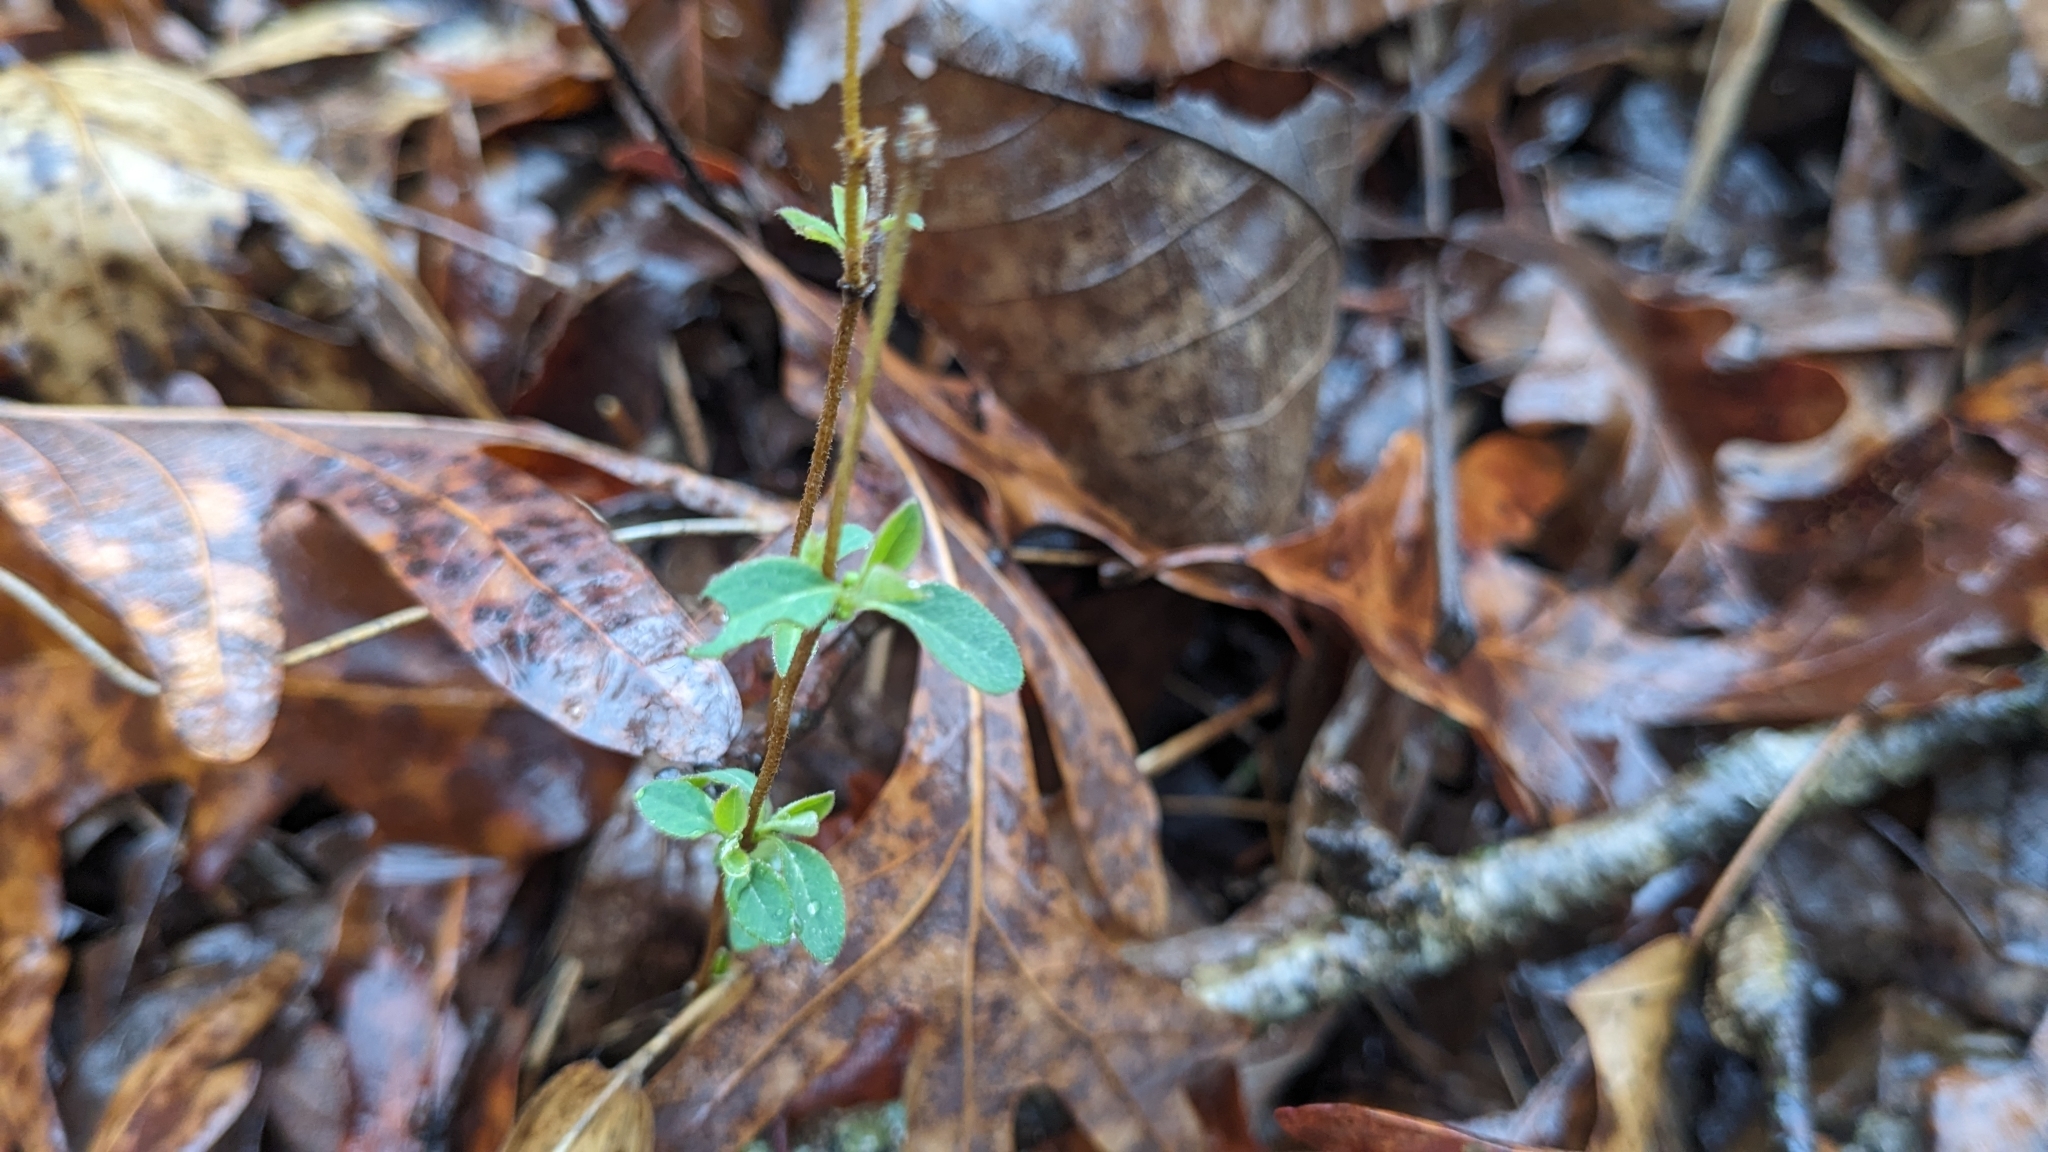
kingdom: Plantae
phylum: Tracheophyta
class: Magnoliopsida
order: Dipsacales
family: Caprifoliaceae
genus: Lonicera
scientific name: Lonicera japonica
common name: Japanese honeysuckle
